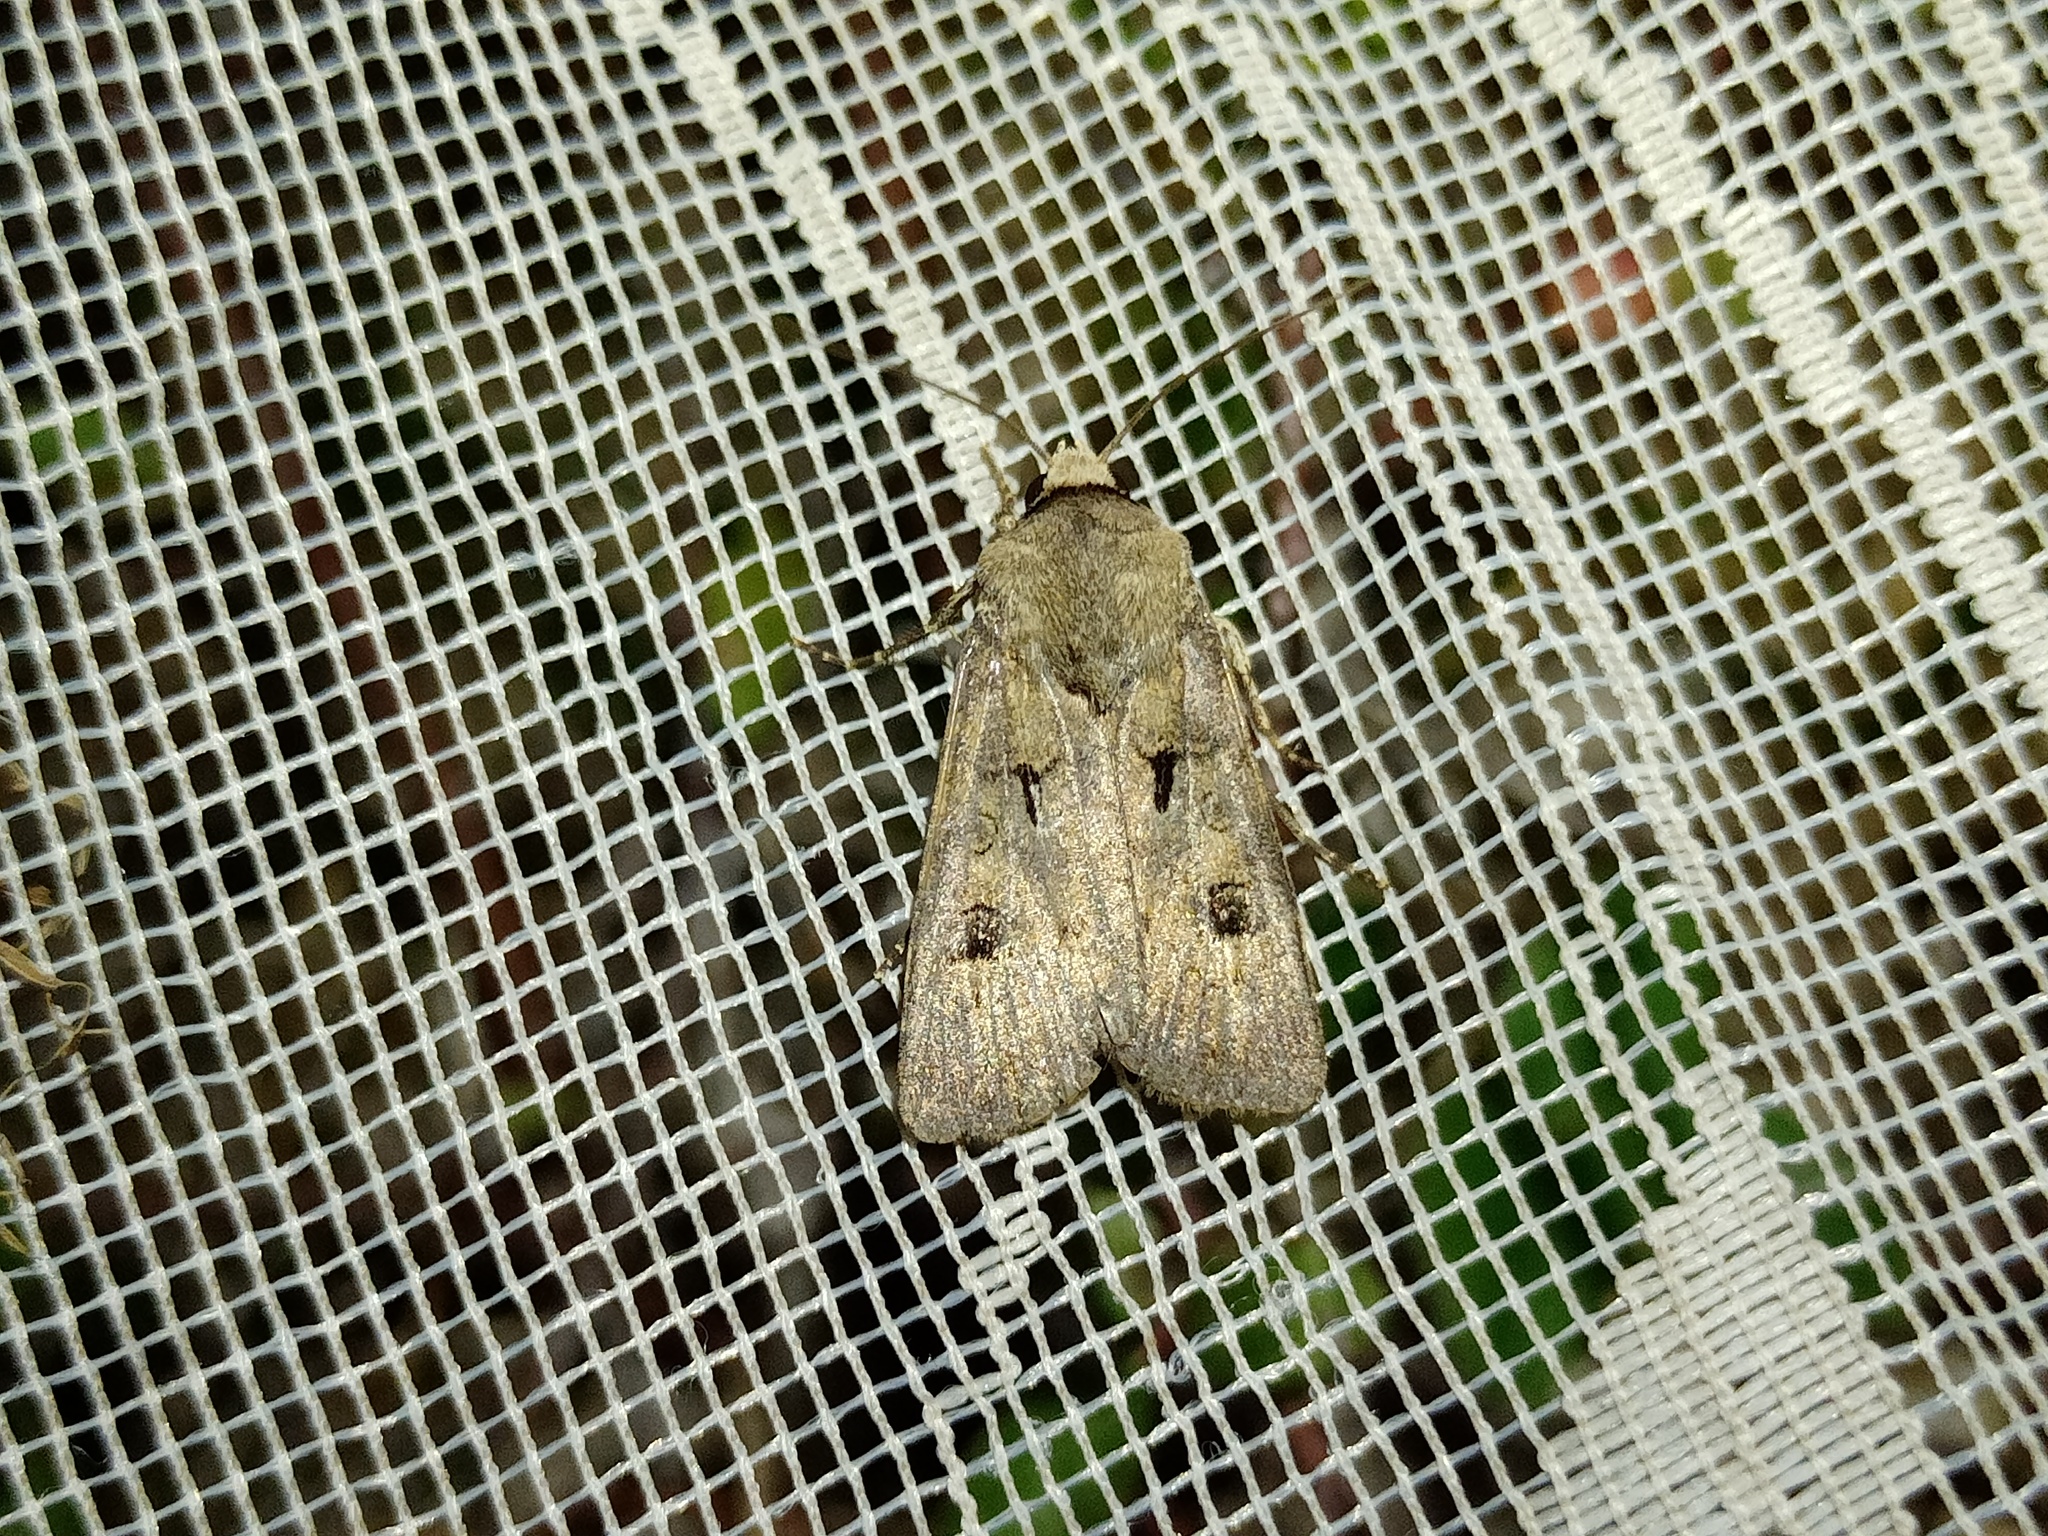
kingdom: Animalia
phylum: Arthropoda
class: Insecta
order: Lepidoptera
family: Noctuidae
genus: Agrotis
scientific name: Agrotis exclamationis
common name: Heart and dart
